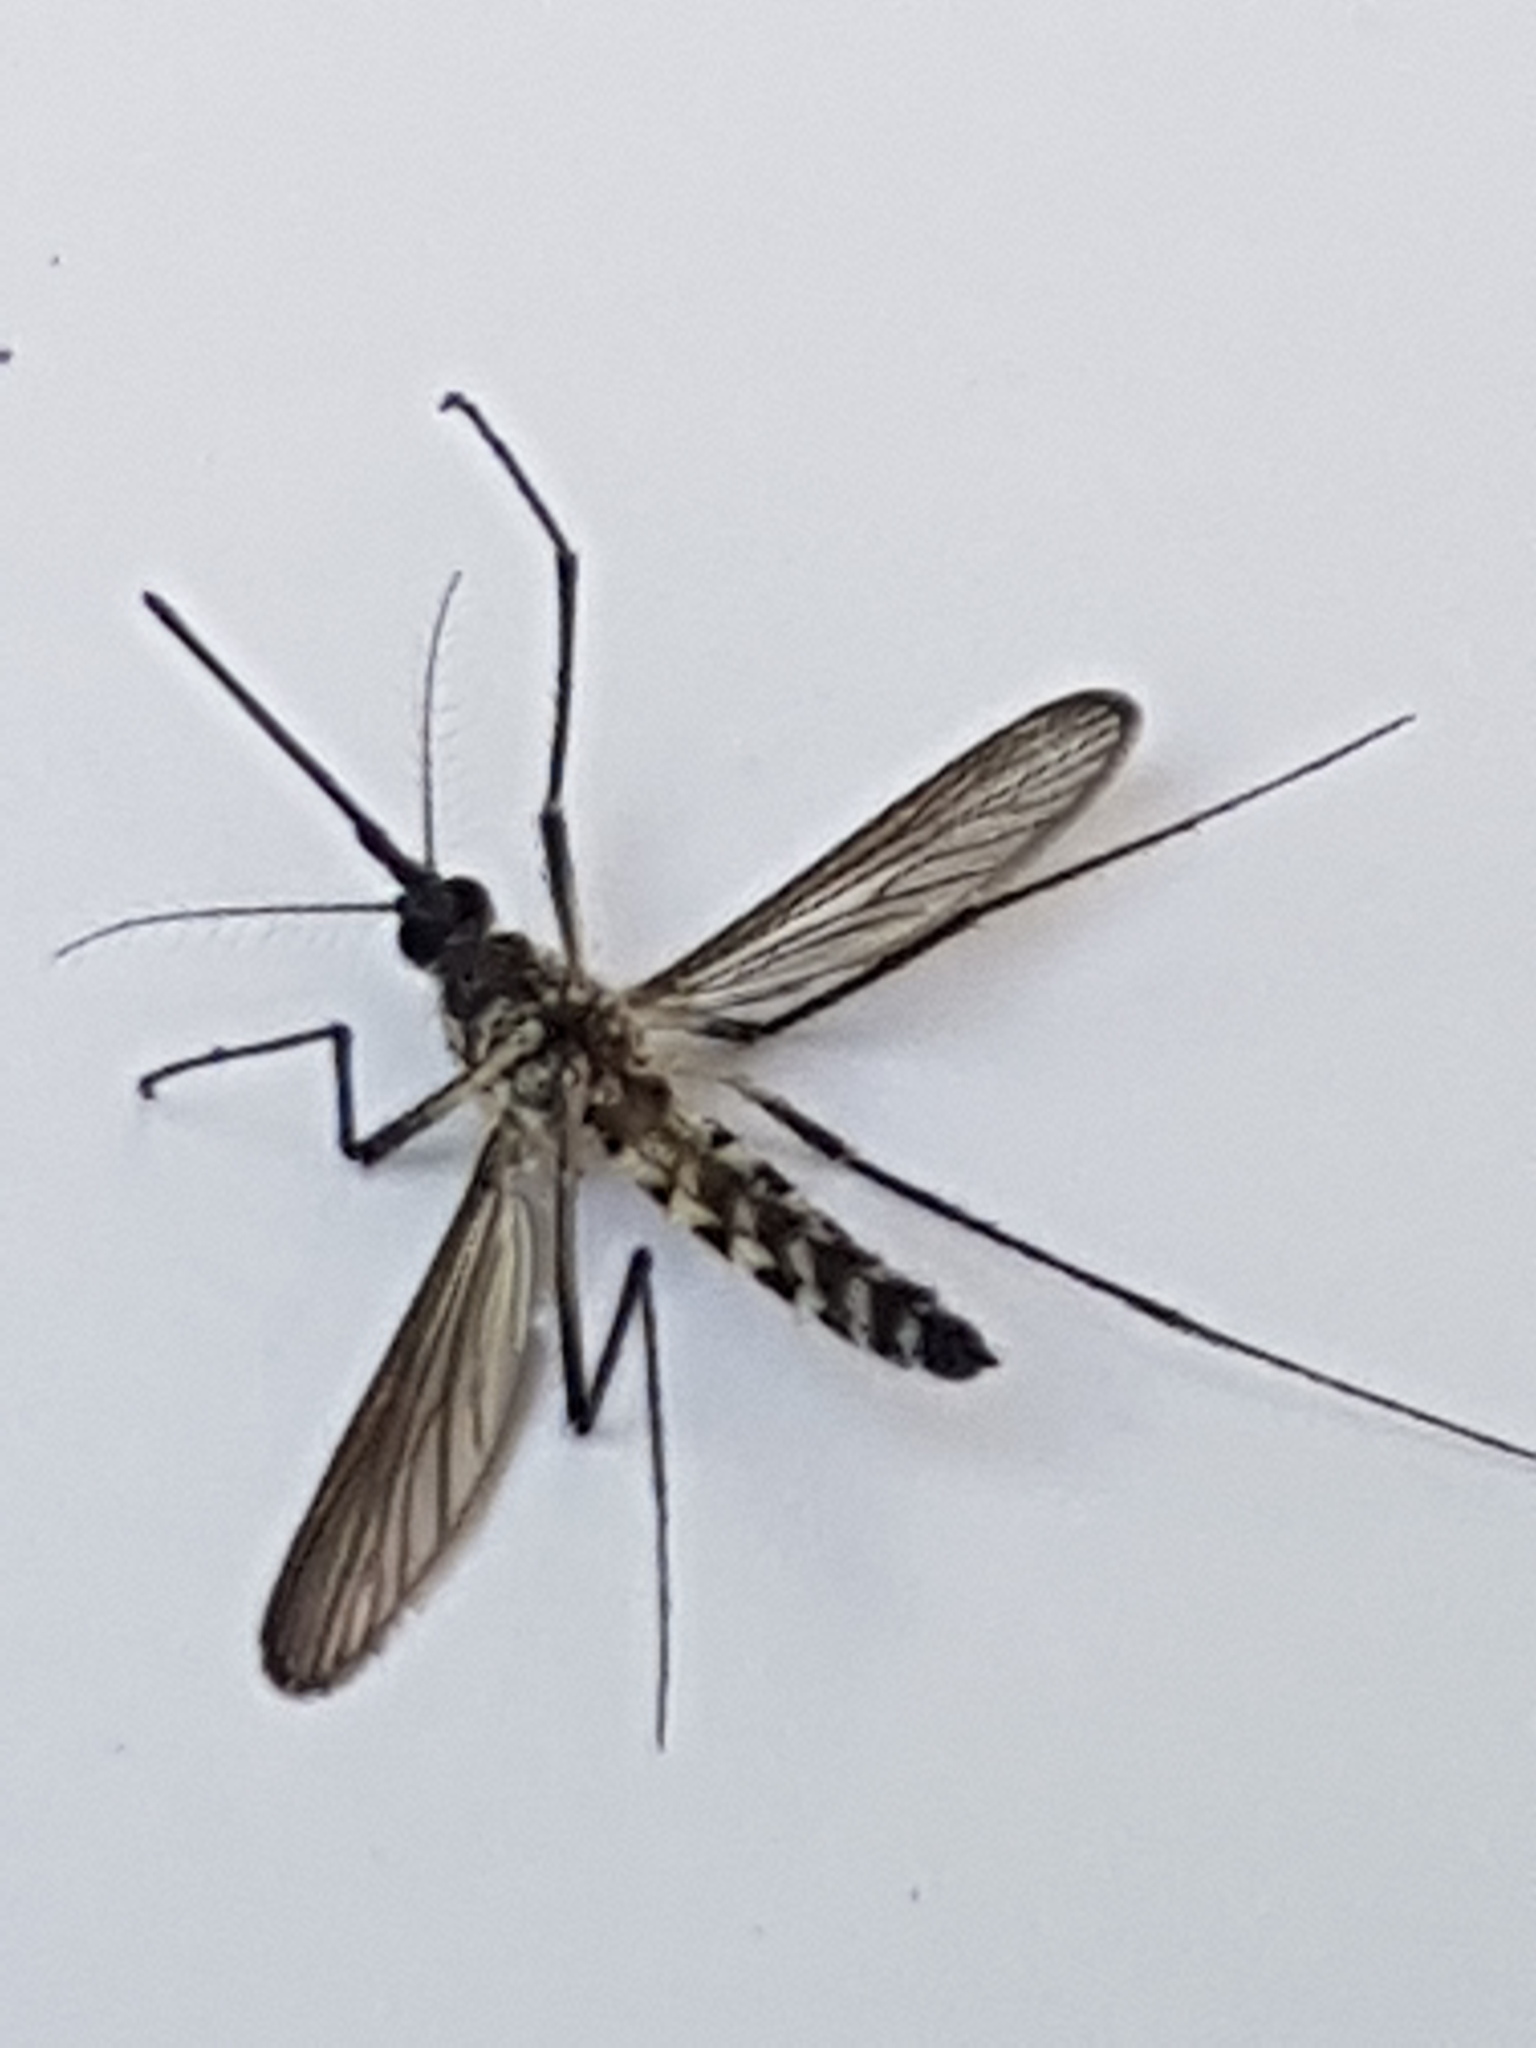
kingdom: Animalia
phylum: Arthropoda
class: Insecta
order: Diptera
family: Culicidae
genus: Aedes
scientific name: Aedes geniculatus
